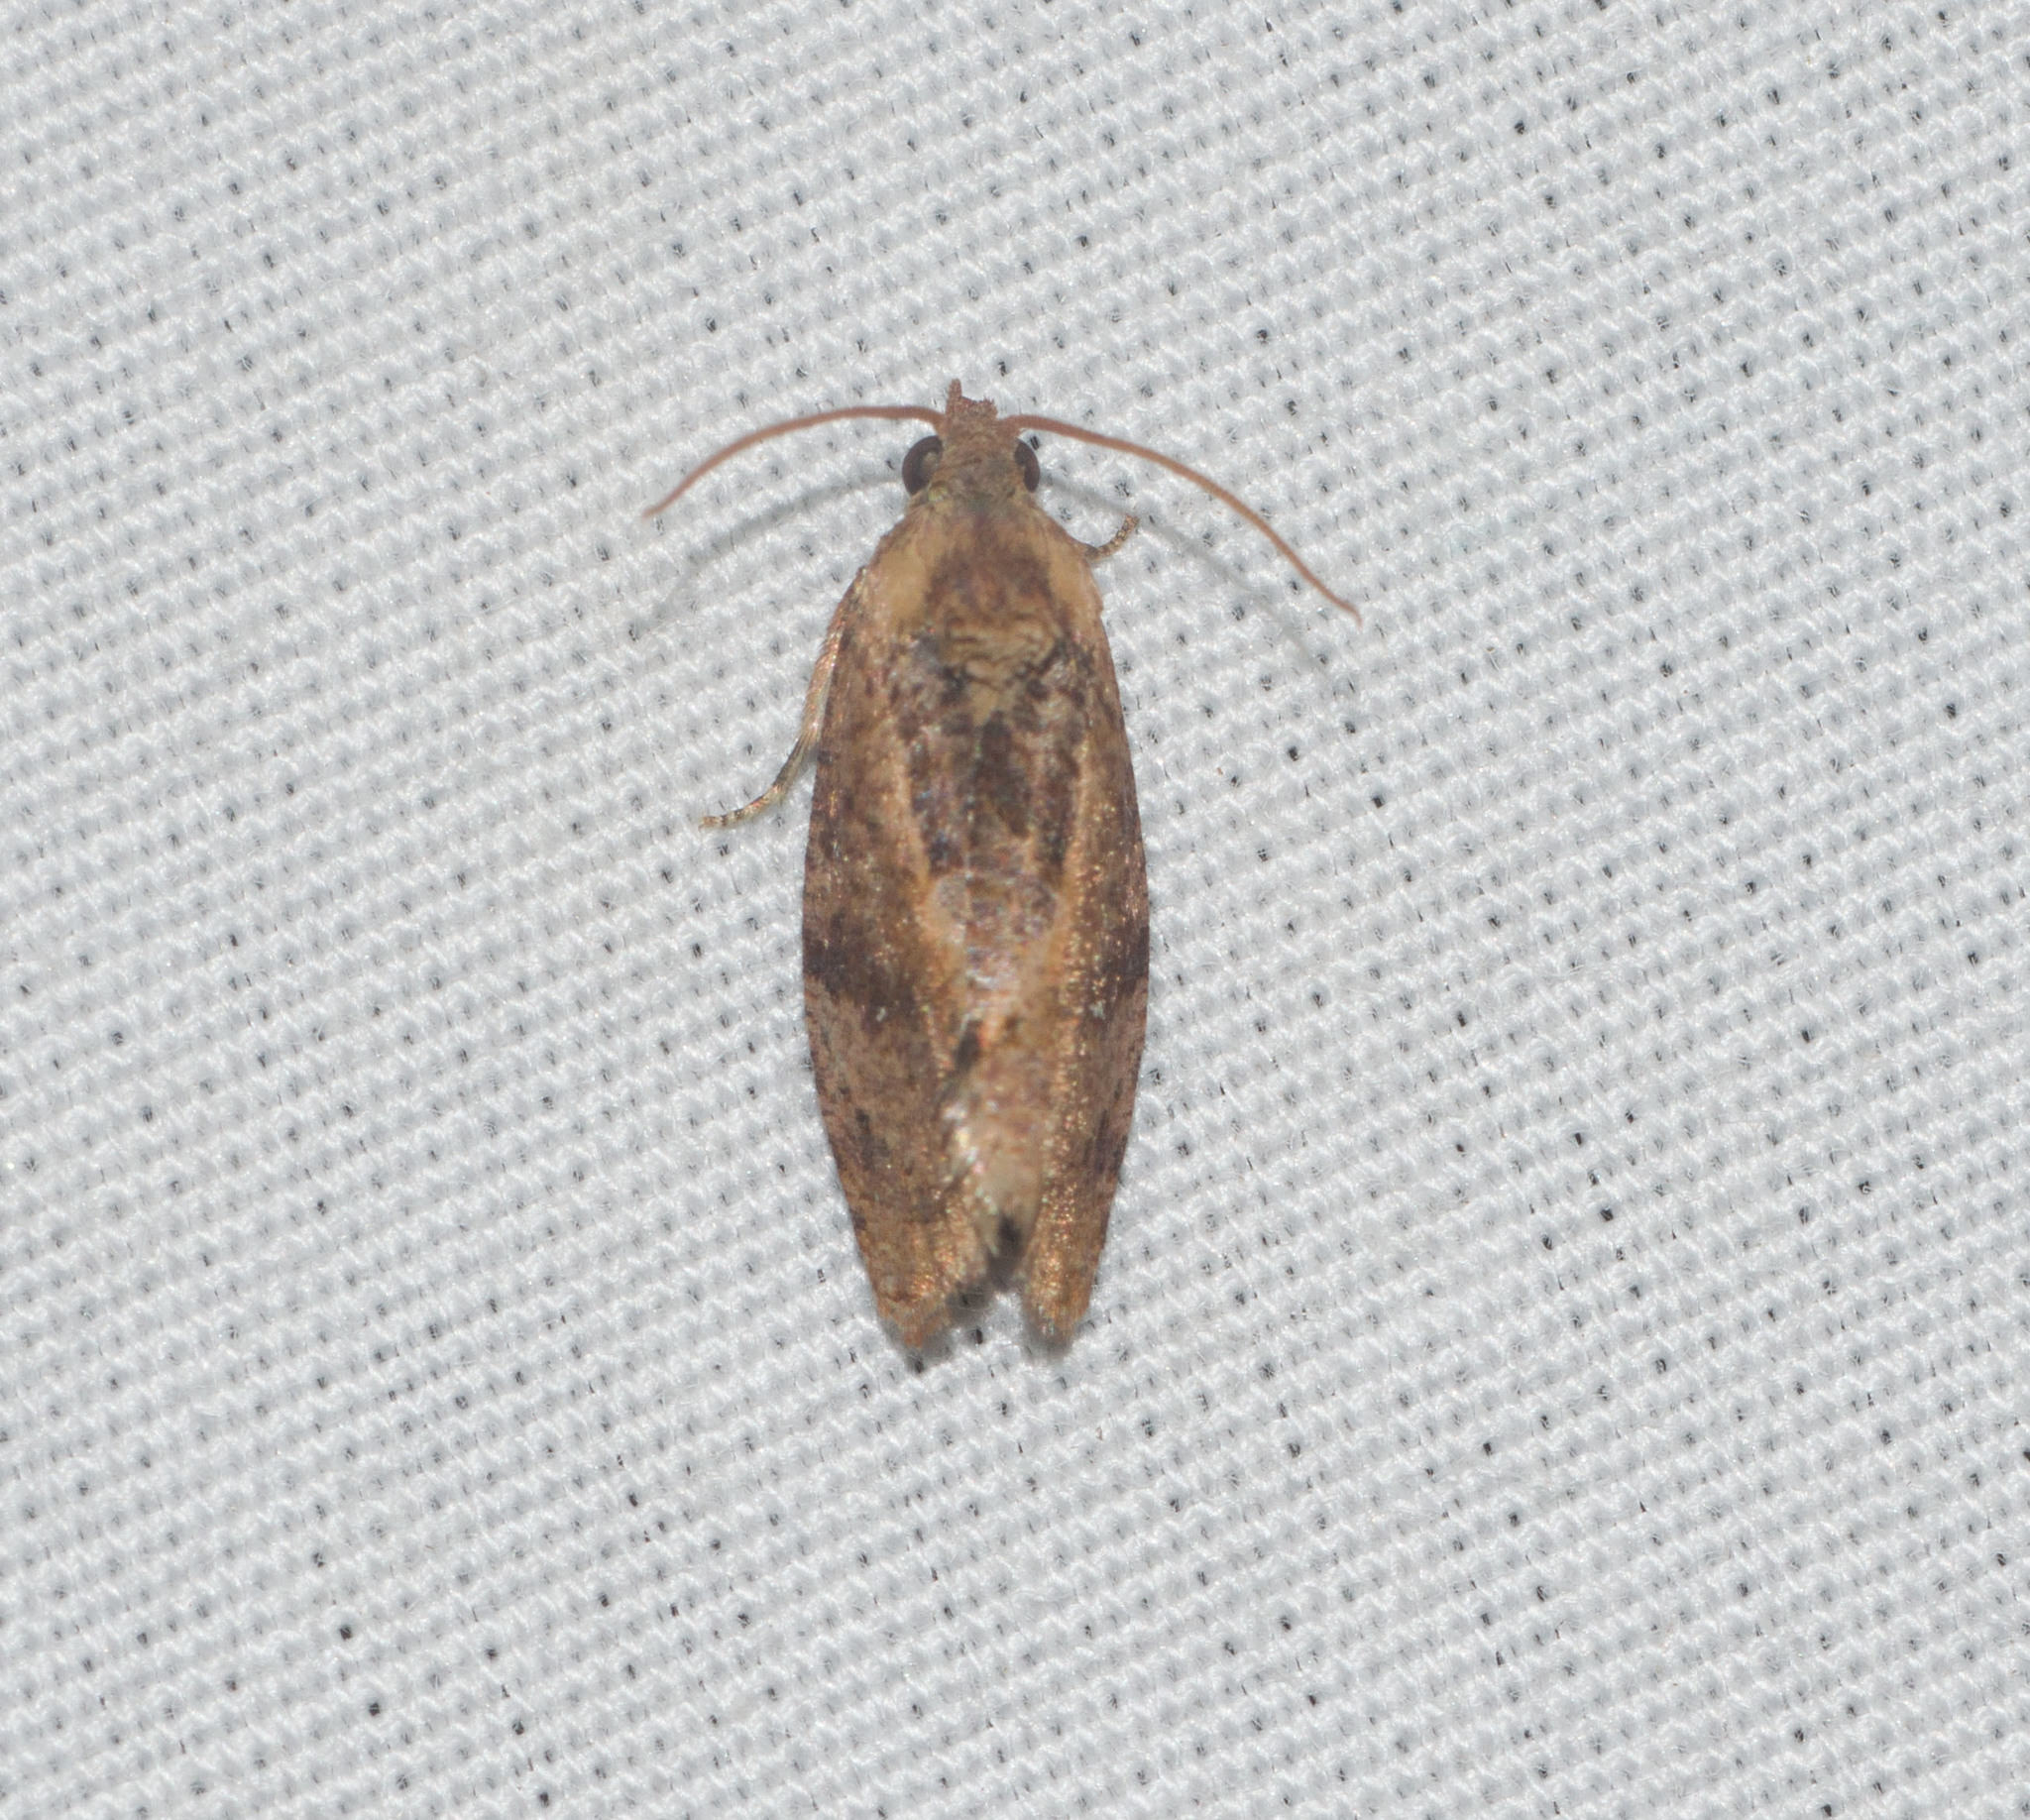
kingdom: Animalia
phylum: Arthropoda
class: Insecta
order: Lepidoptera
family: Tortricidae
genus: Cryptophlebia
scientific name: Cryptophlebia illepida
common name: Moth
